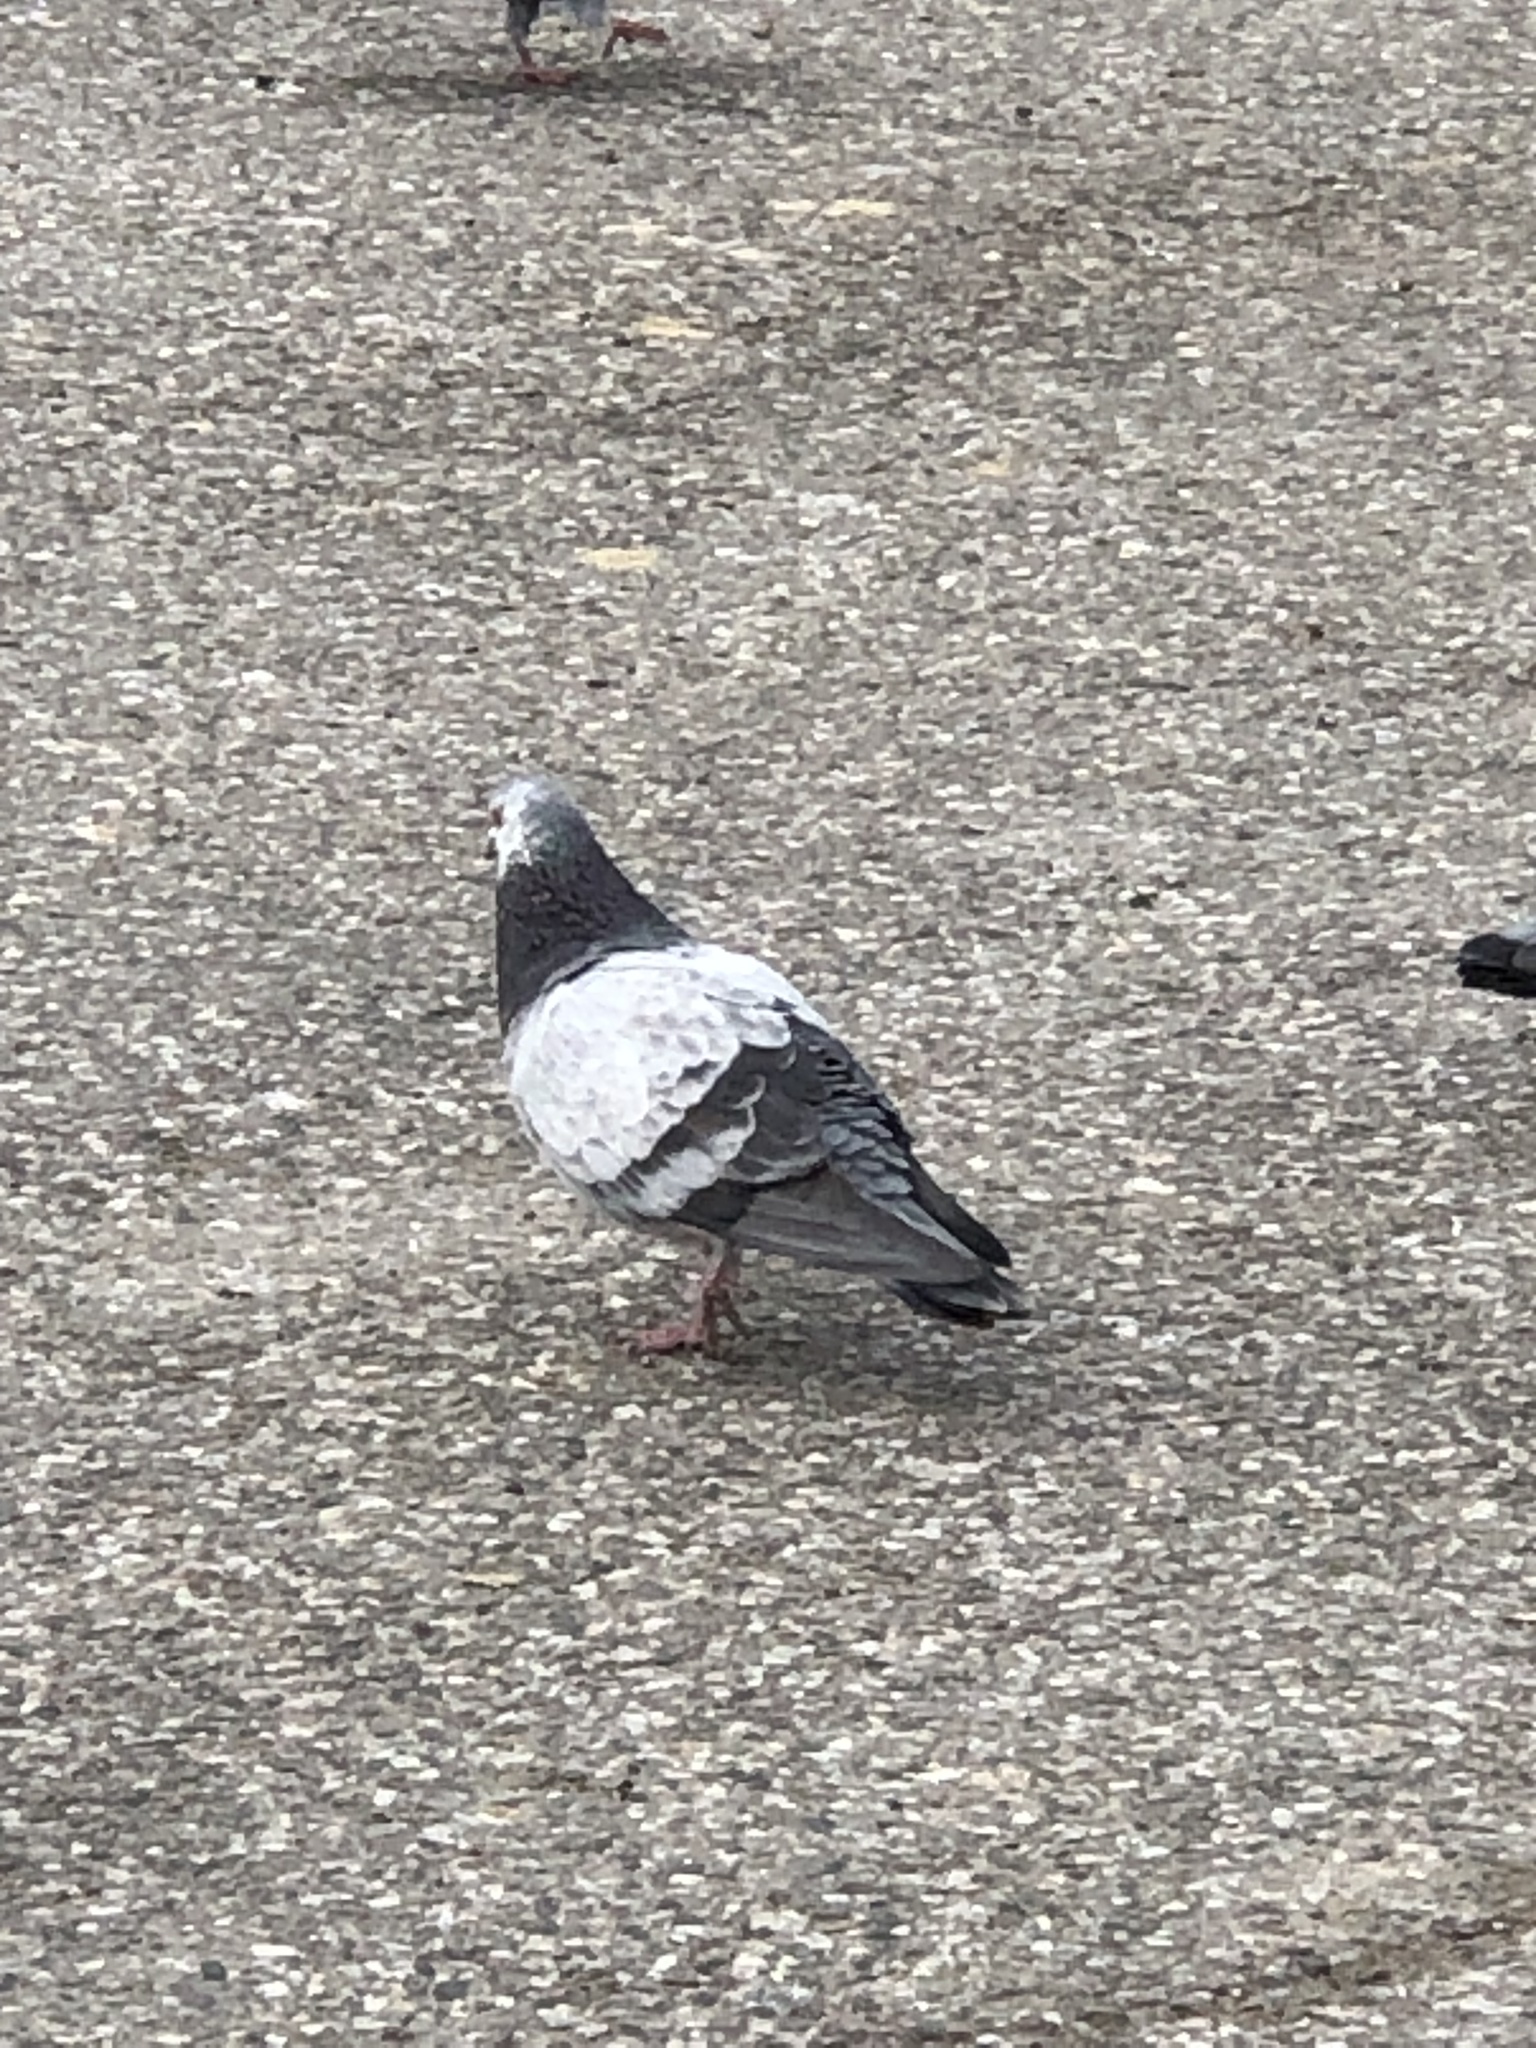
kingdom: Animalia
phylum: Chordata
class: Aves
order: Columbiformes
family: Columbidae
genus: Columba
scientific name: Columba livia
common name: Rock pigeon
